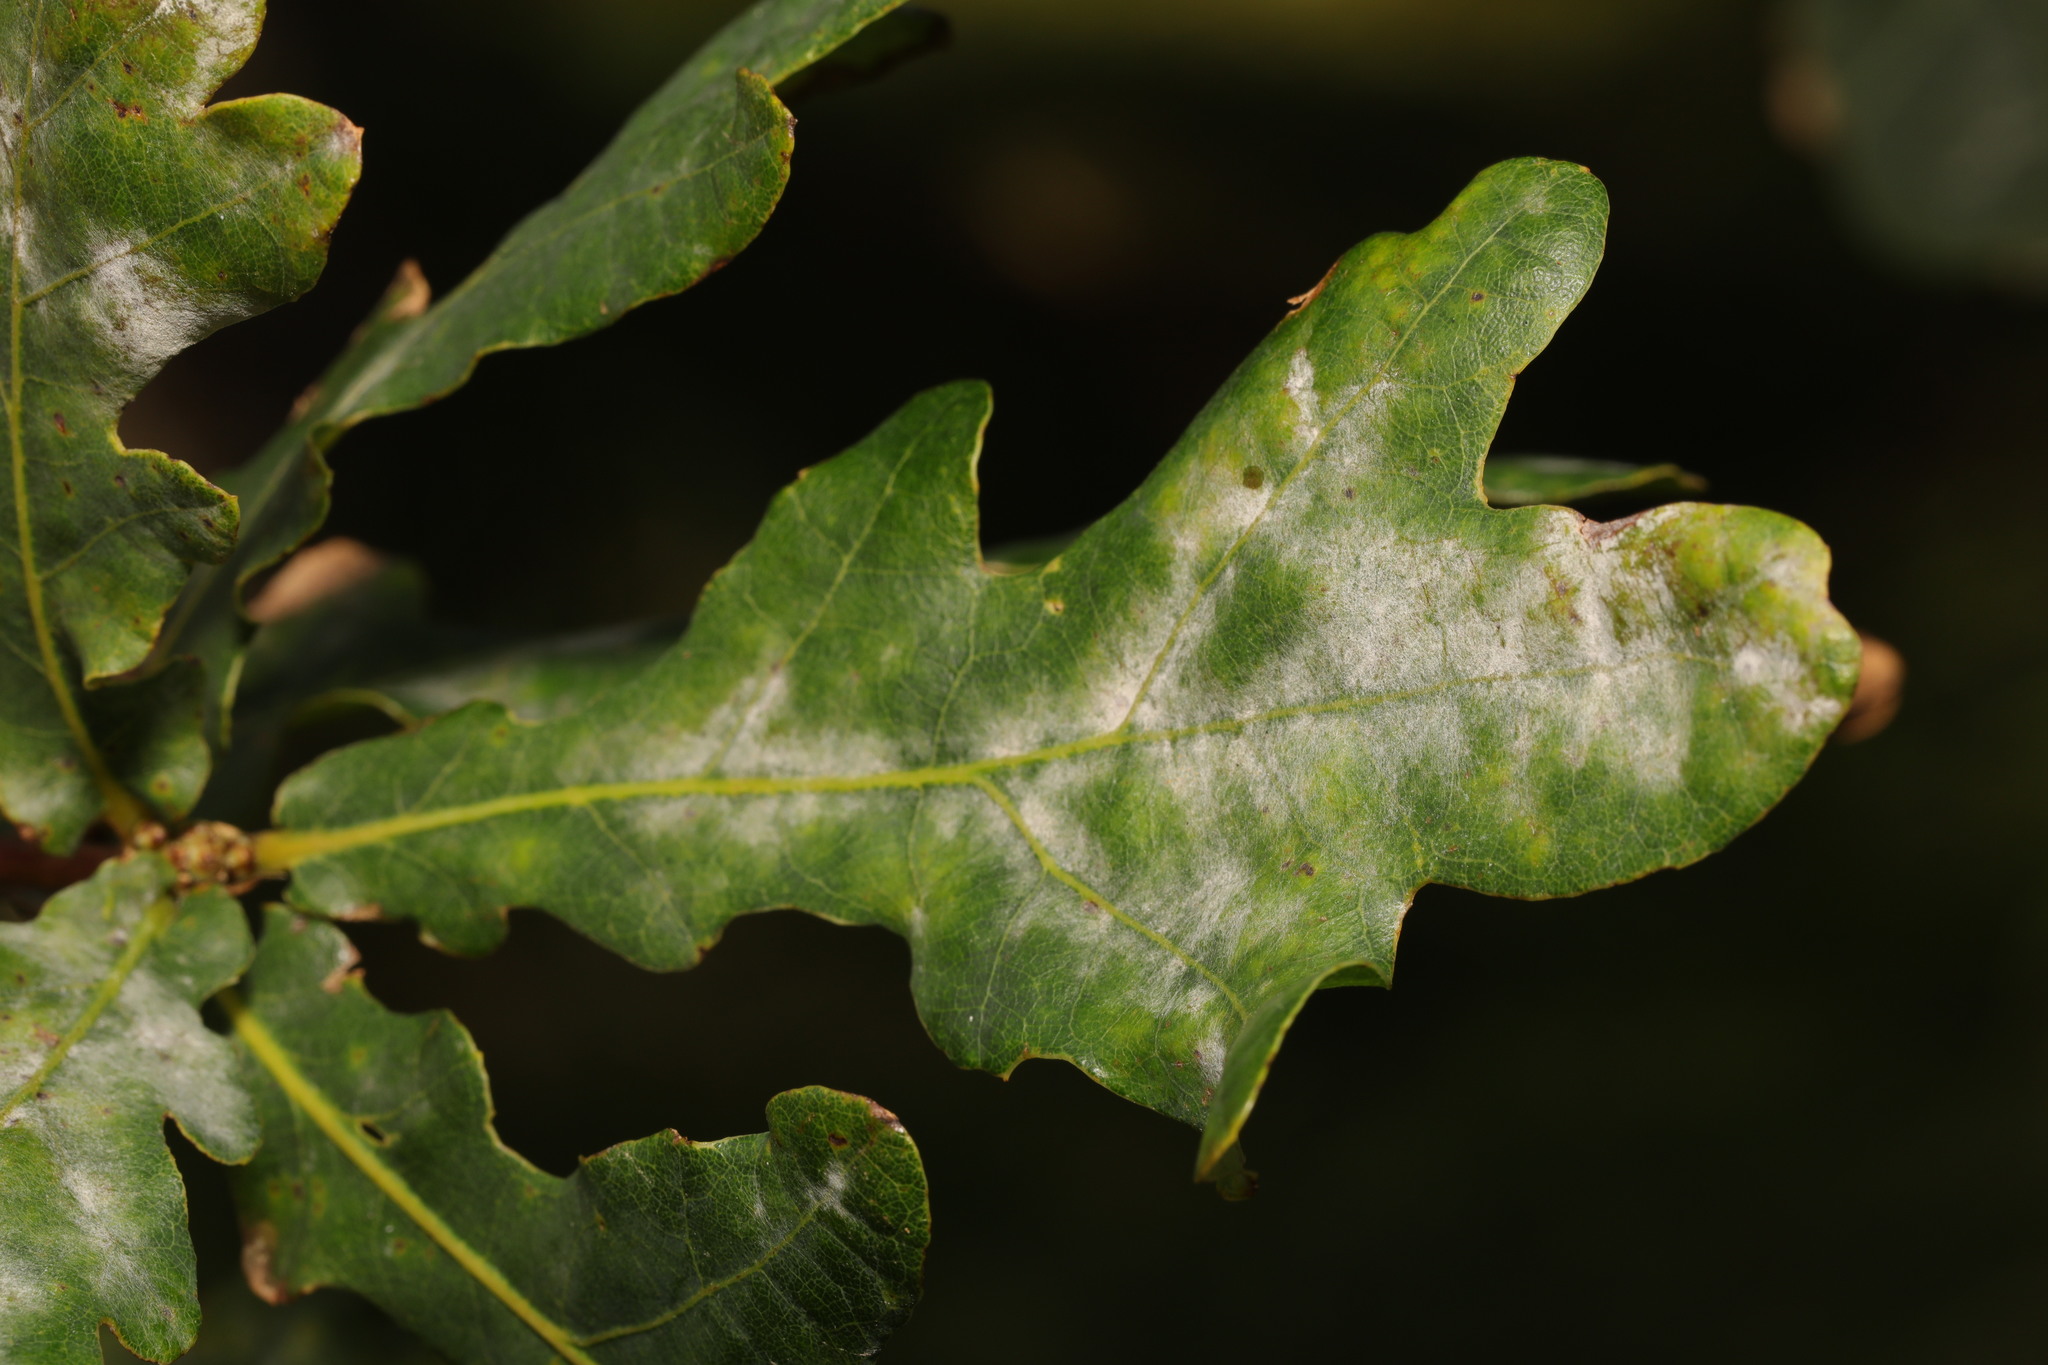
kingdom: Fungi
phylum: Ascomycota
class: Leotiomycetes
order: Helotiales
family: Erysiphaceae
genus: Erysiphe
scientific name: Erysiphe alphitoides
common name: Oak mildew
